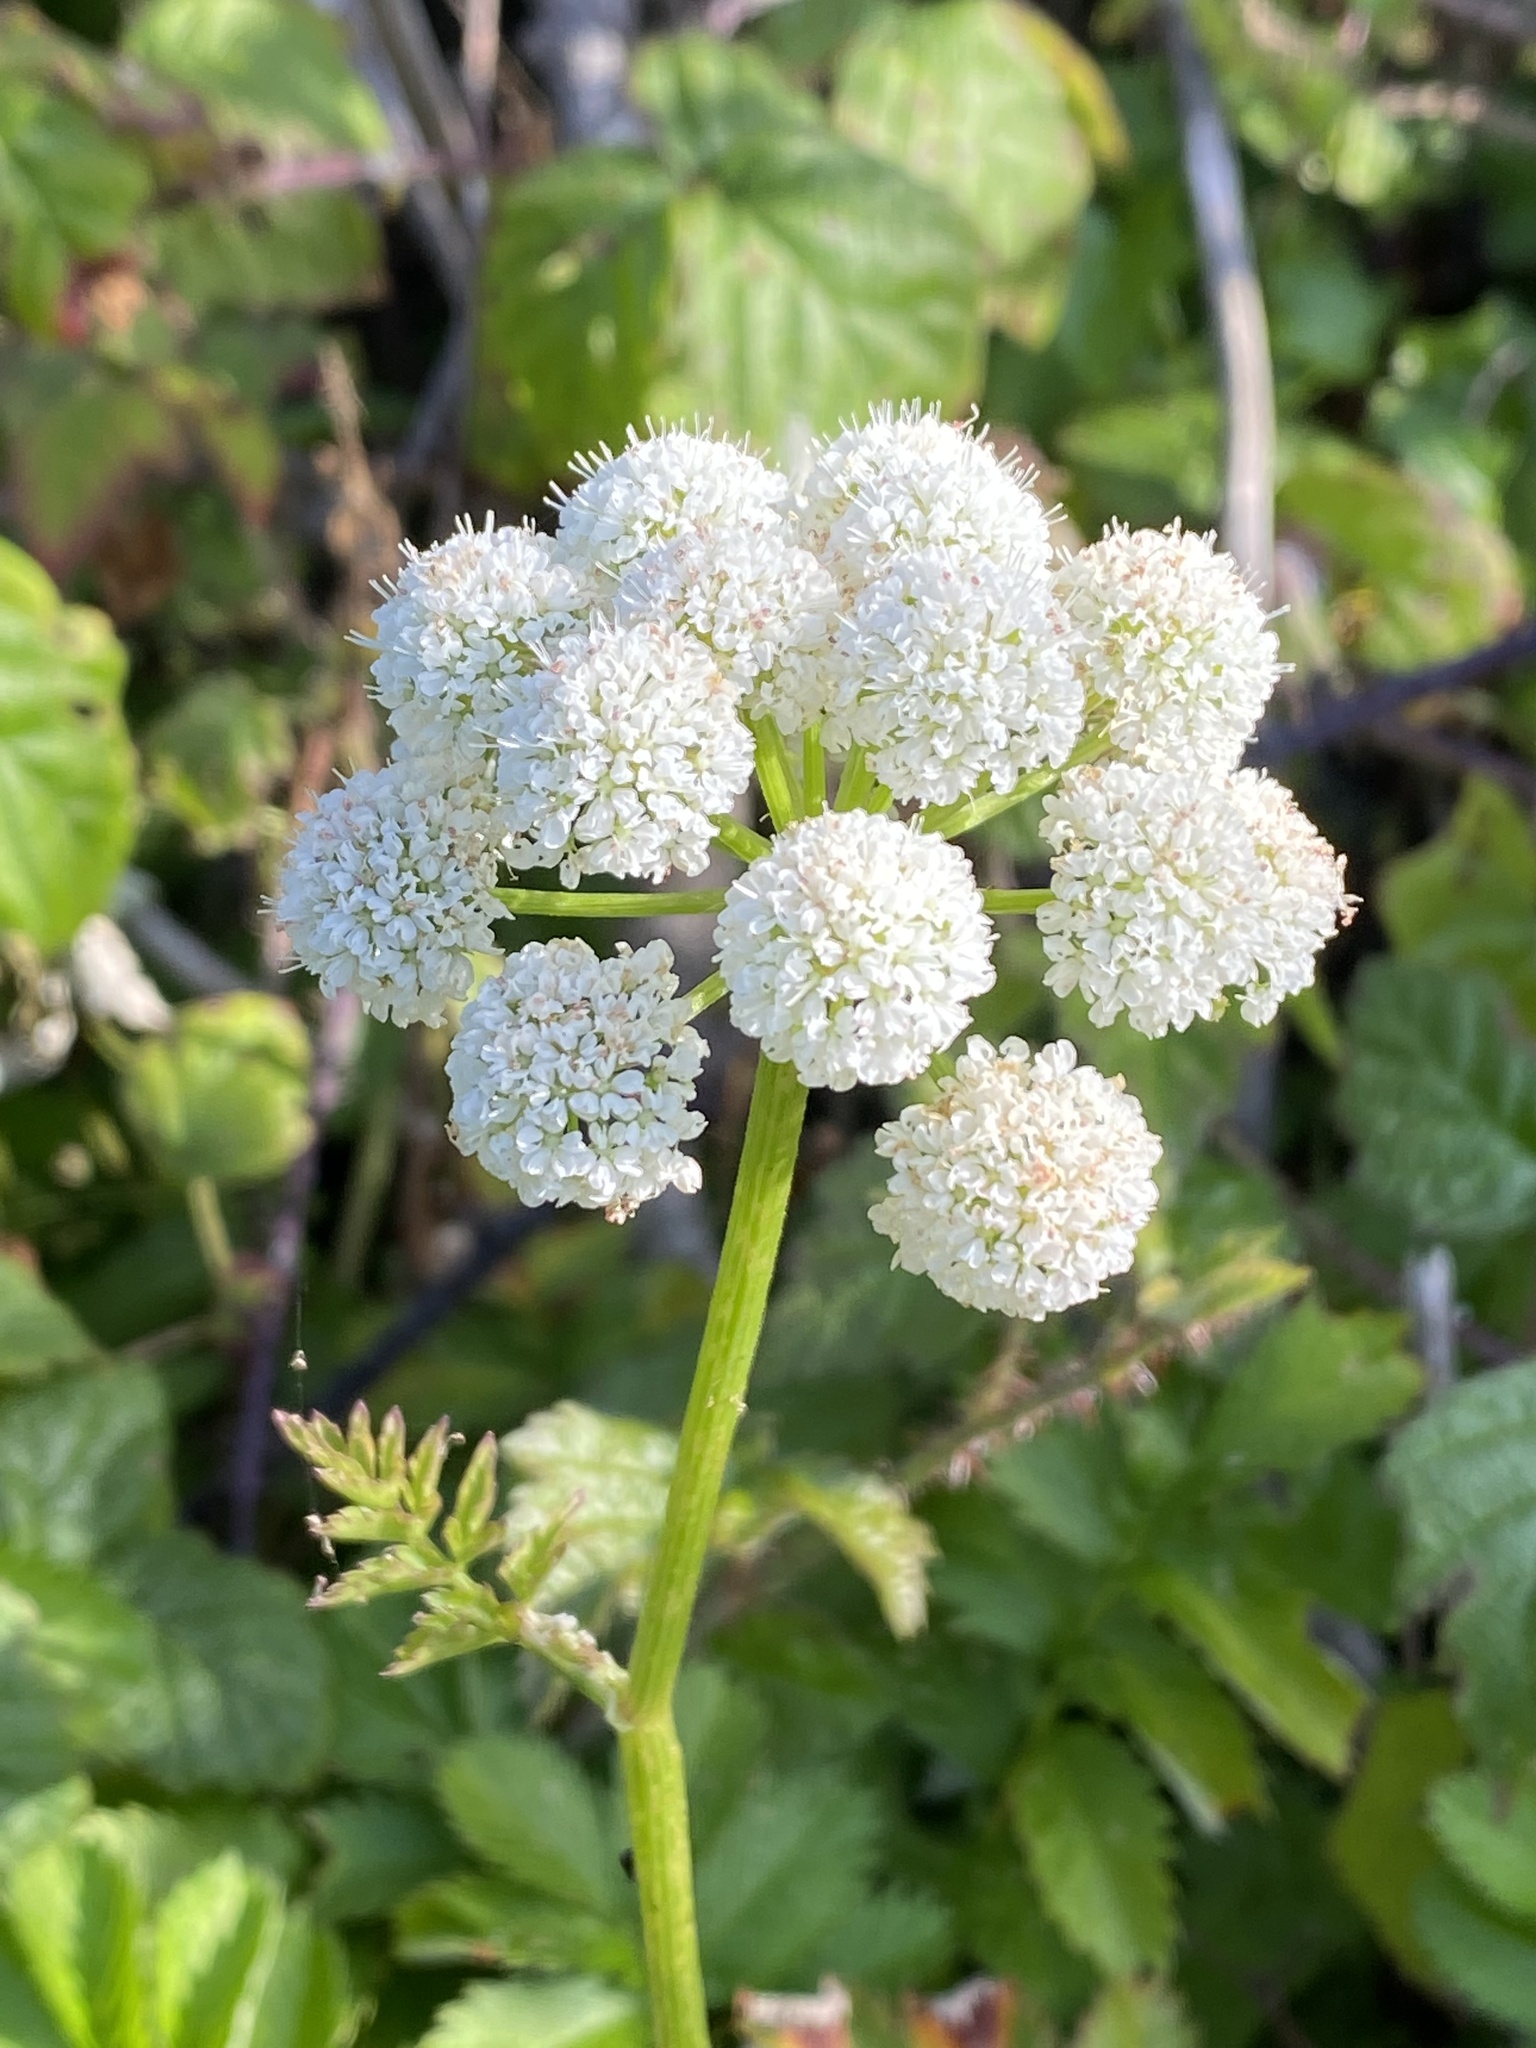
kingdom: Plantae
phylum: Tracheophyta
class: Magnoliopsida
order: Apiales
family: Apiaceae
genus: Oenanthe
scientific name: Oenanthe sarmentosa
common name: American water-parsley
